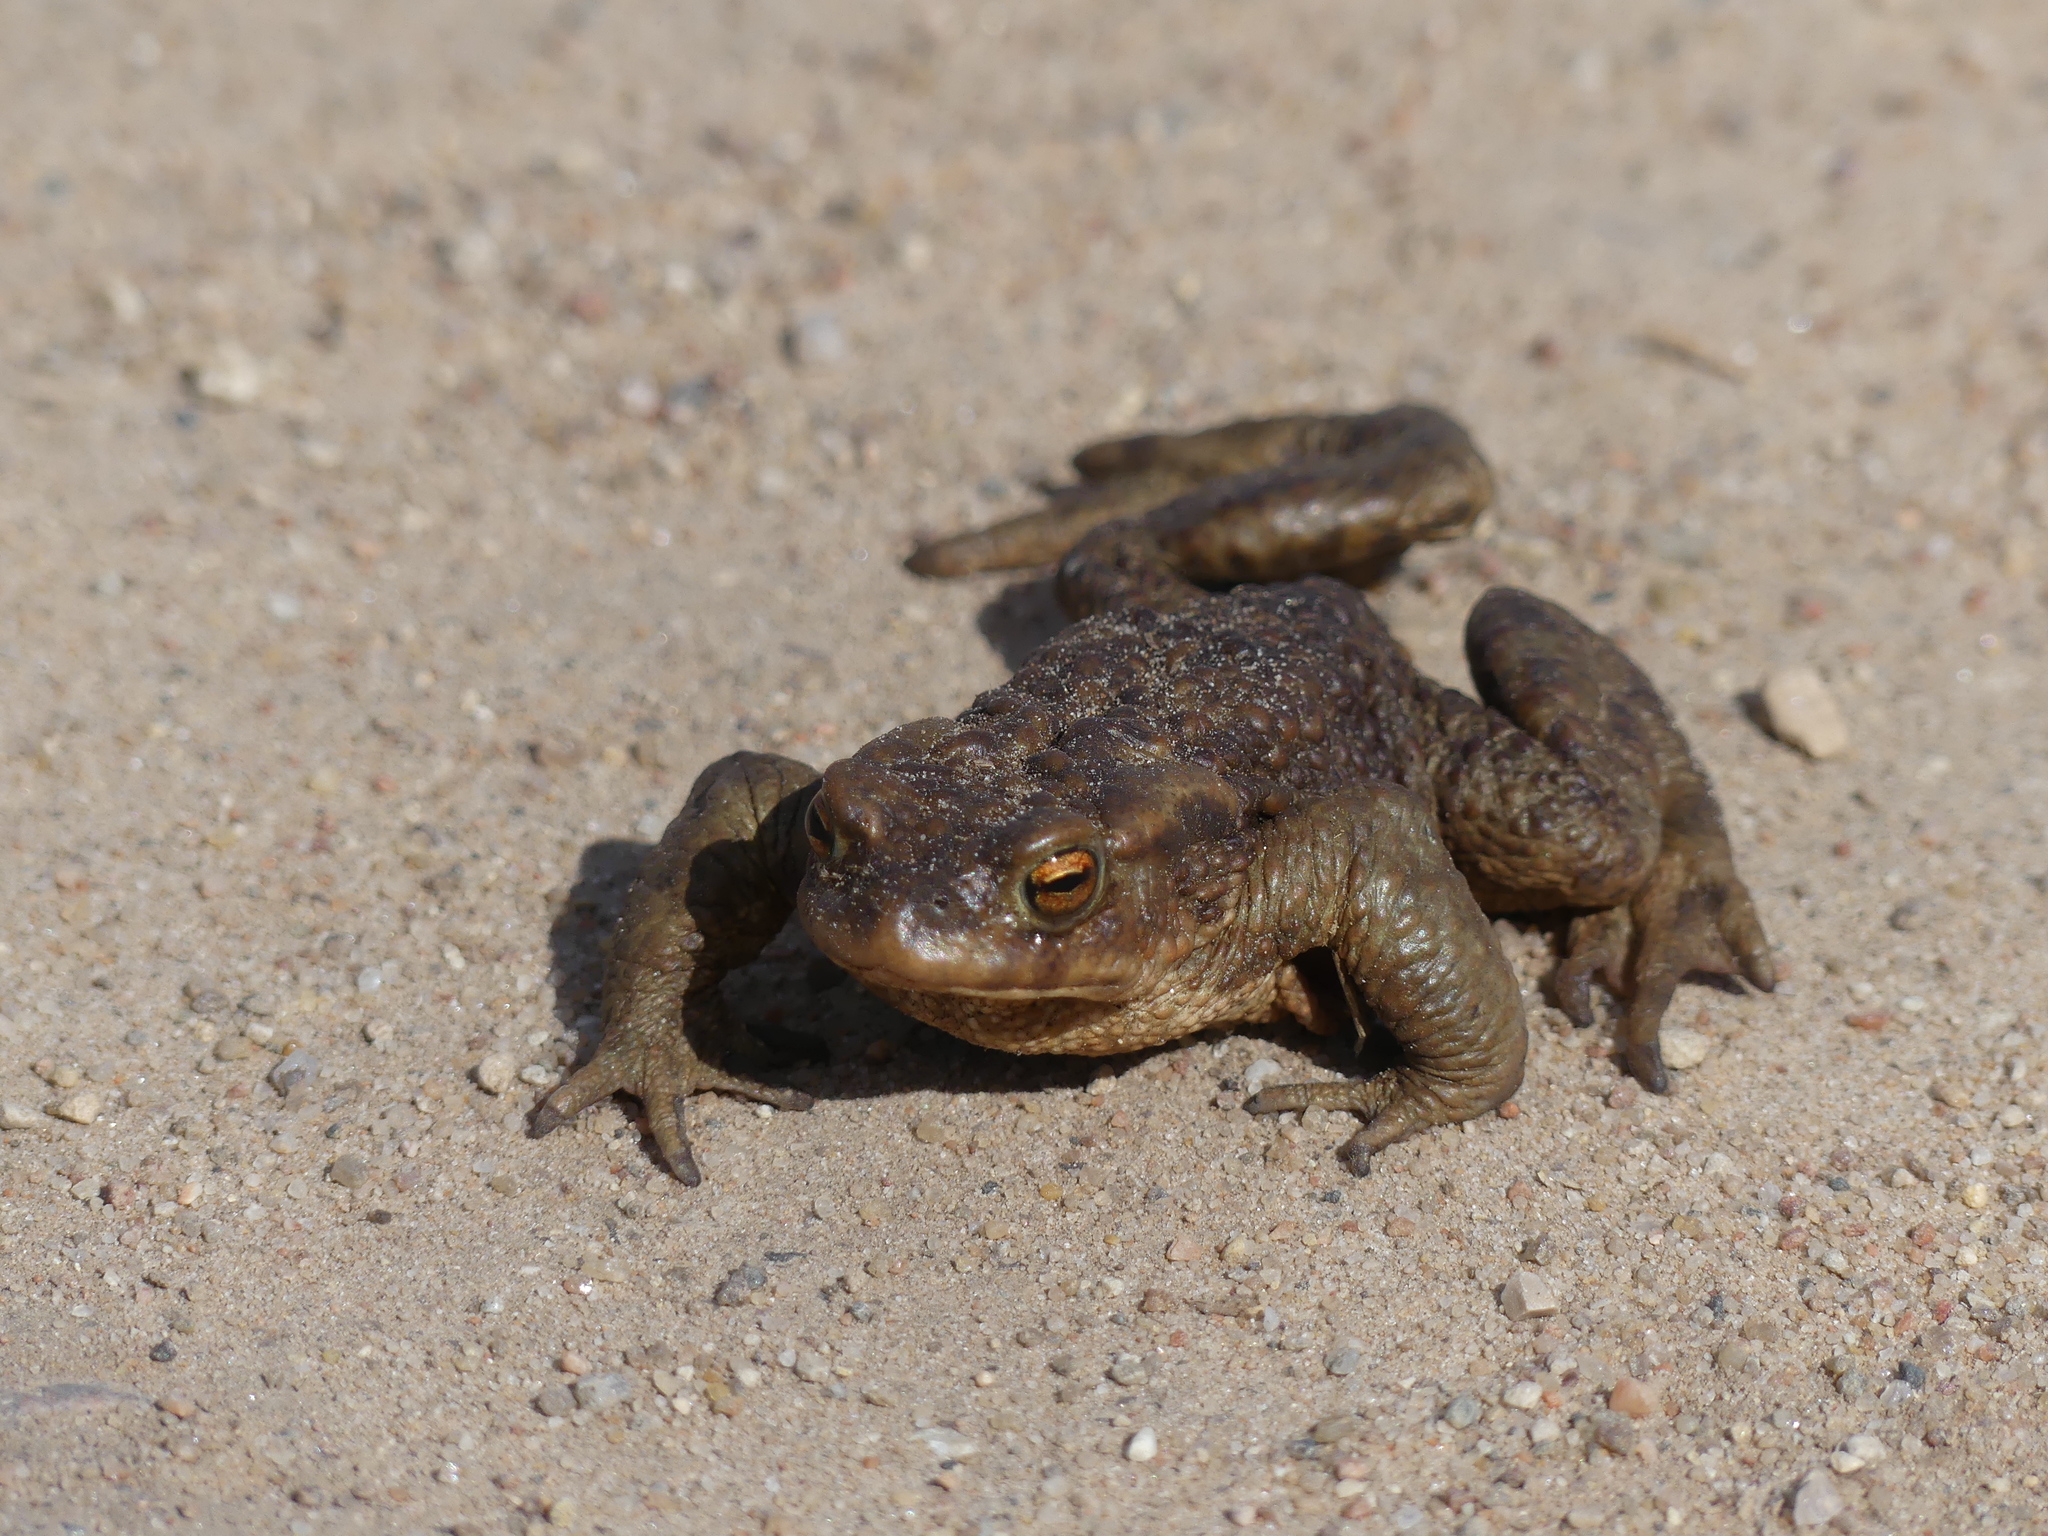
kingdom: Animalia
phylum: Chordata
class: Amphibia
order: Anura
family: Bufonidae
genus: Bufo
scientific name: Bufo bufo
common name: Common toad
